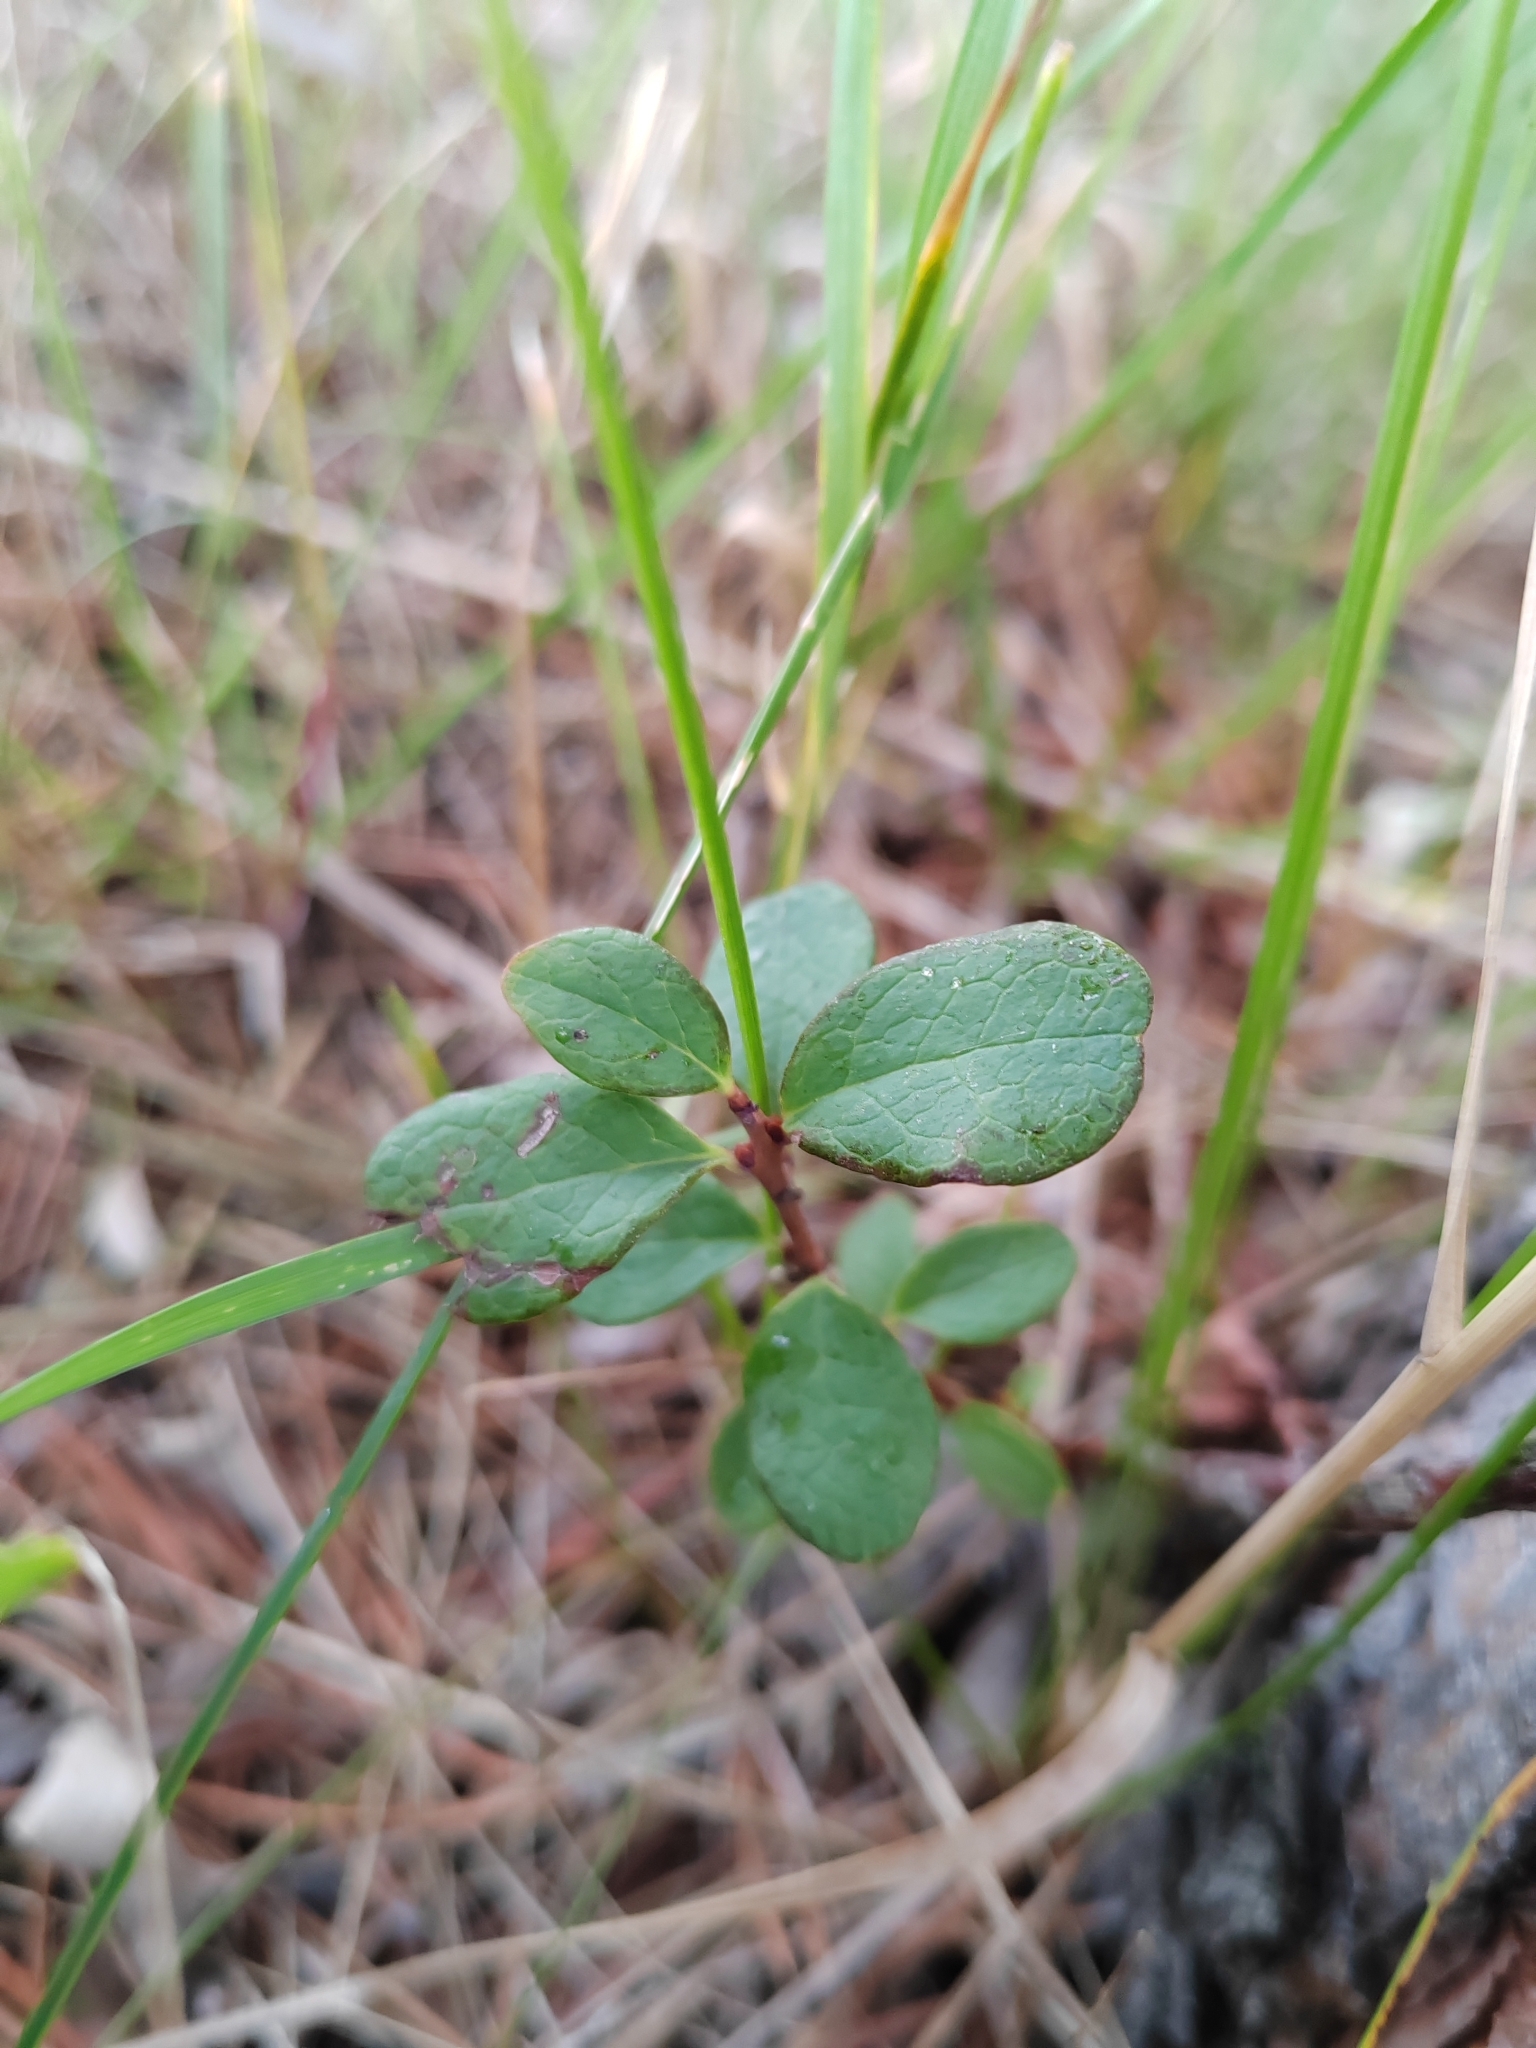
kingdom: Plantae
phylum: Tracheophyta
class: Magnoliopsida
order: Ericales
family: Ericaceae
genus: Vaccinium
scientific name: Vaccinium uliginosum
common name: Bog bilberry
